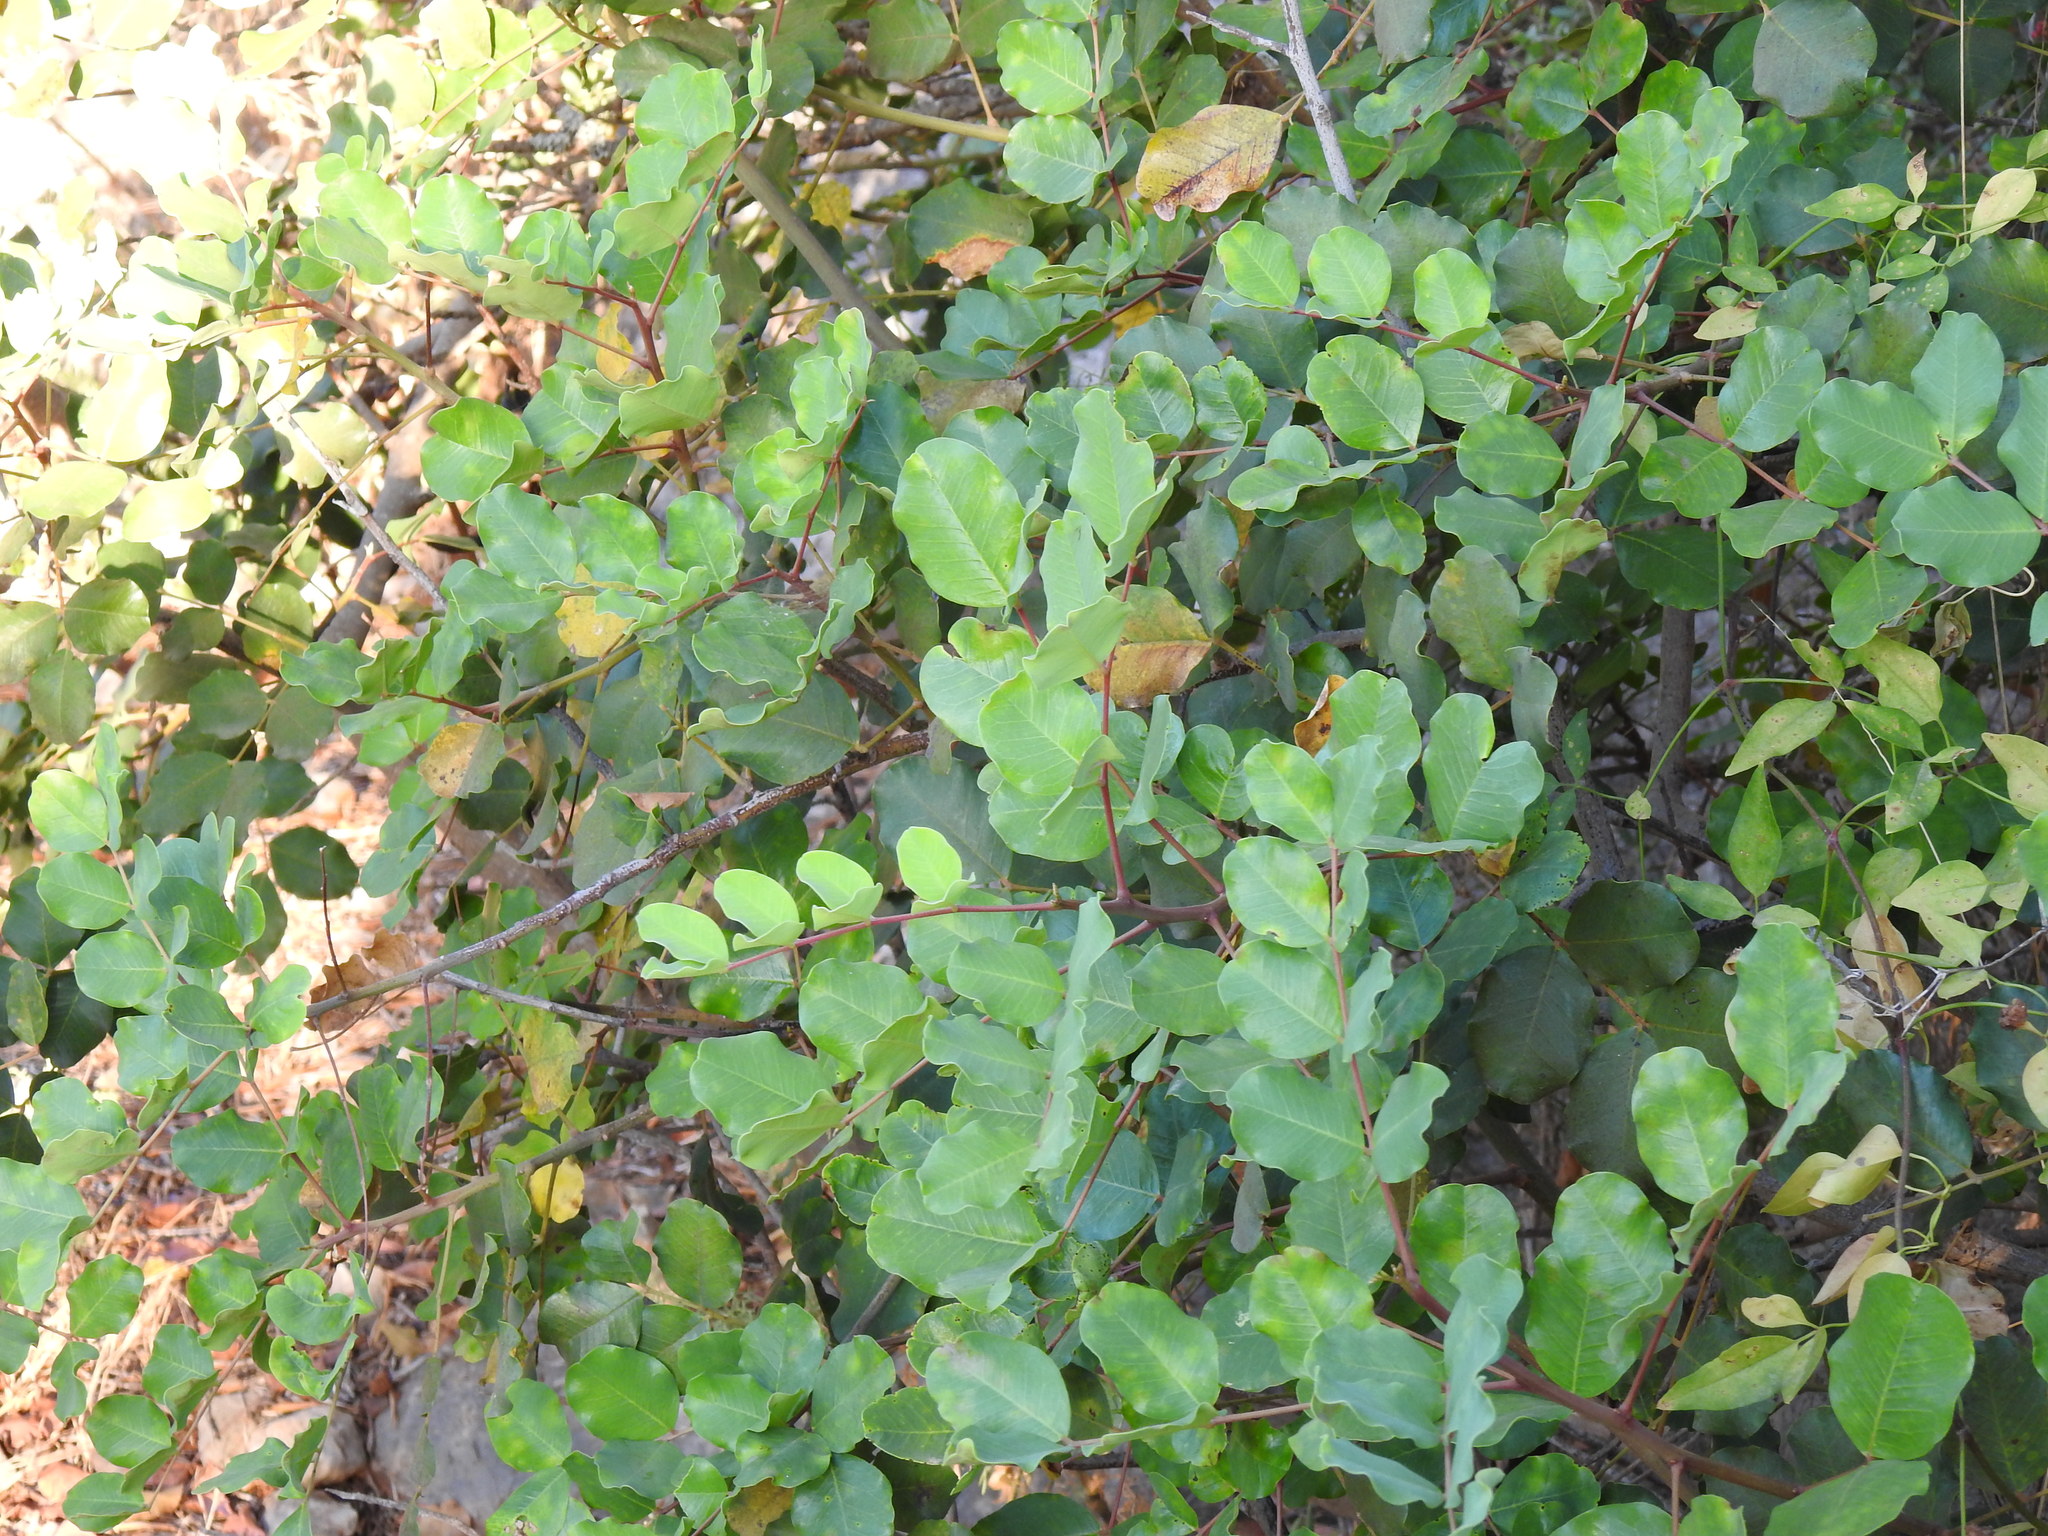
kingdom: Plantae
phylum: Tracheophyta
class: Magnoliopsida
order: Fabales
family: Fabaceae
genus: Ceratonia
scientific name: Ceratonia siliqua
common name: Carob
